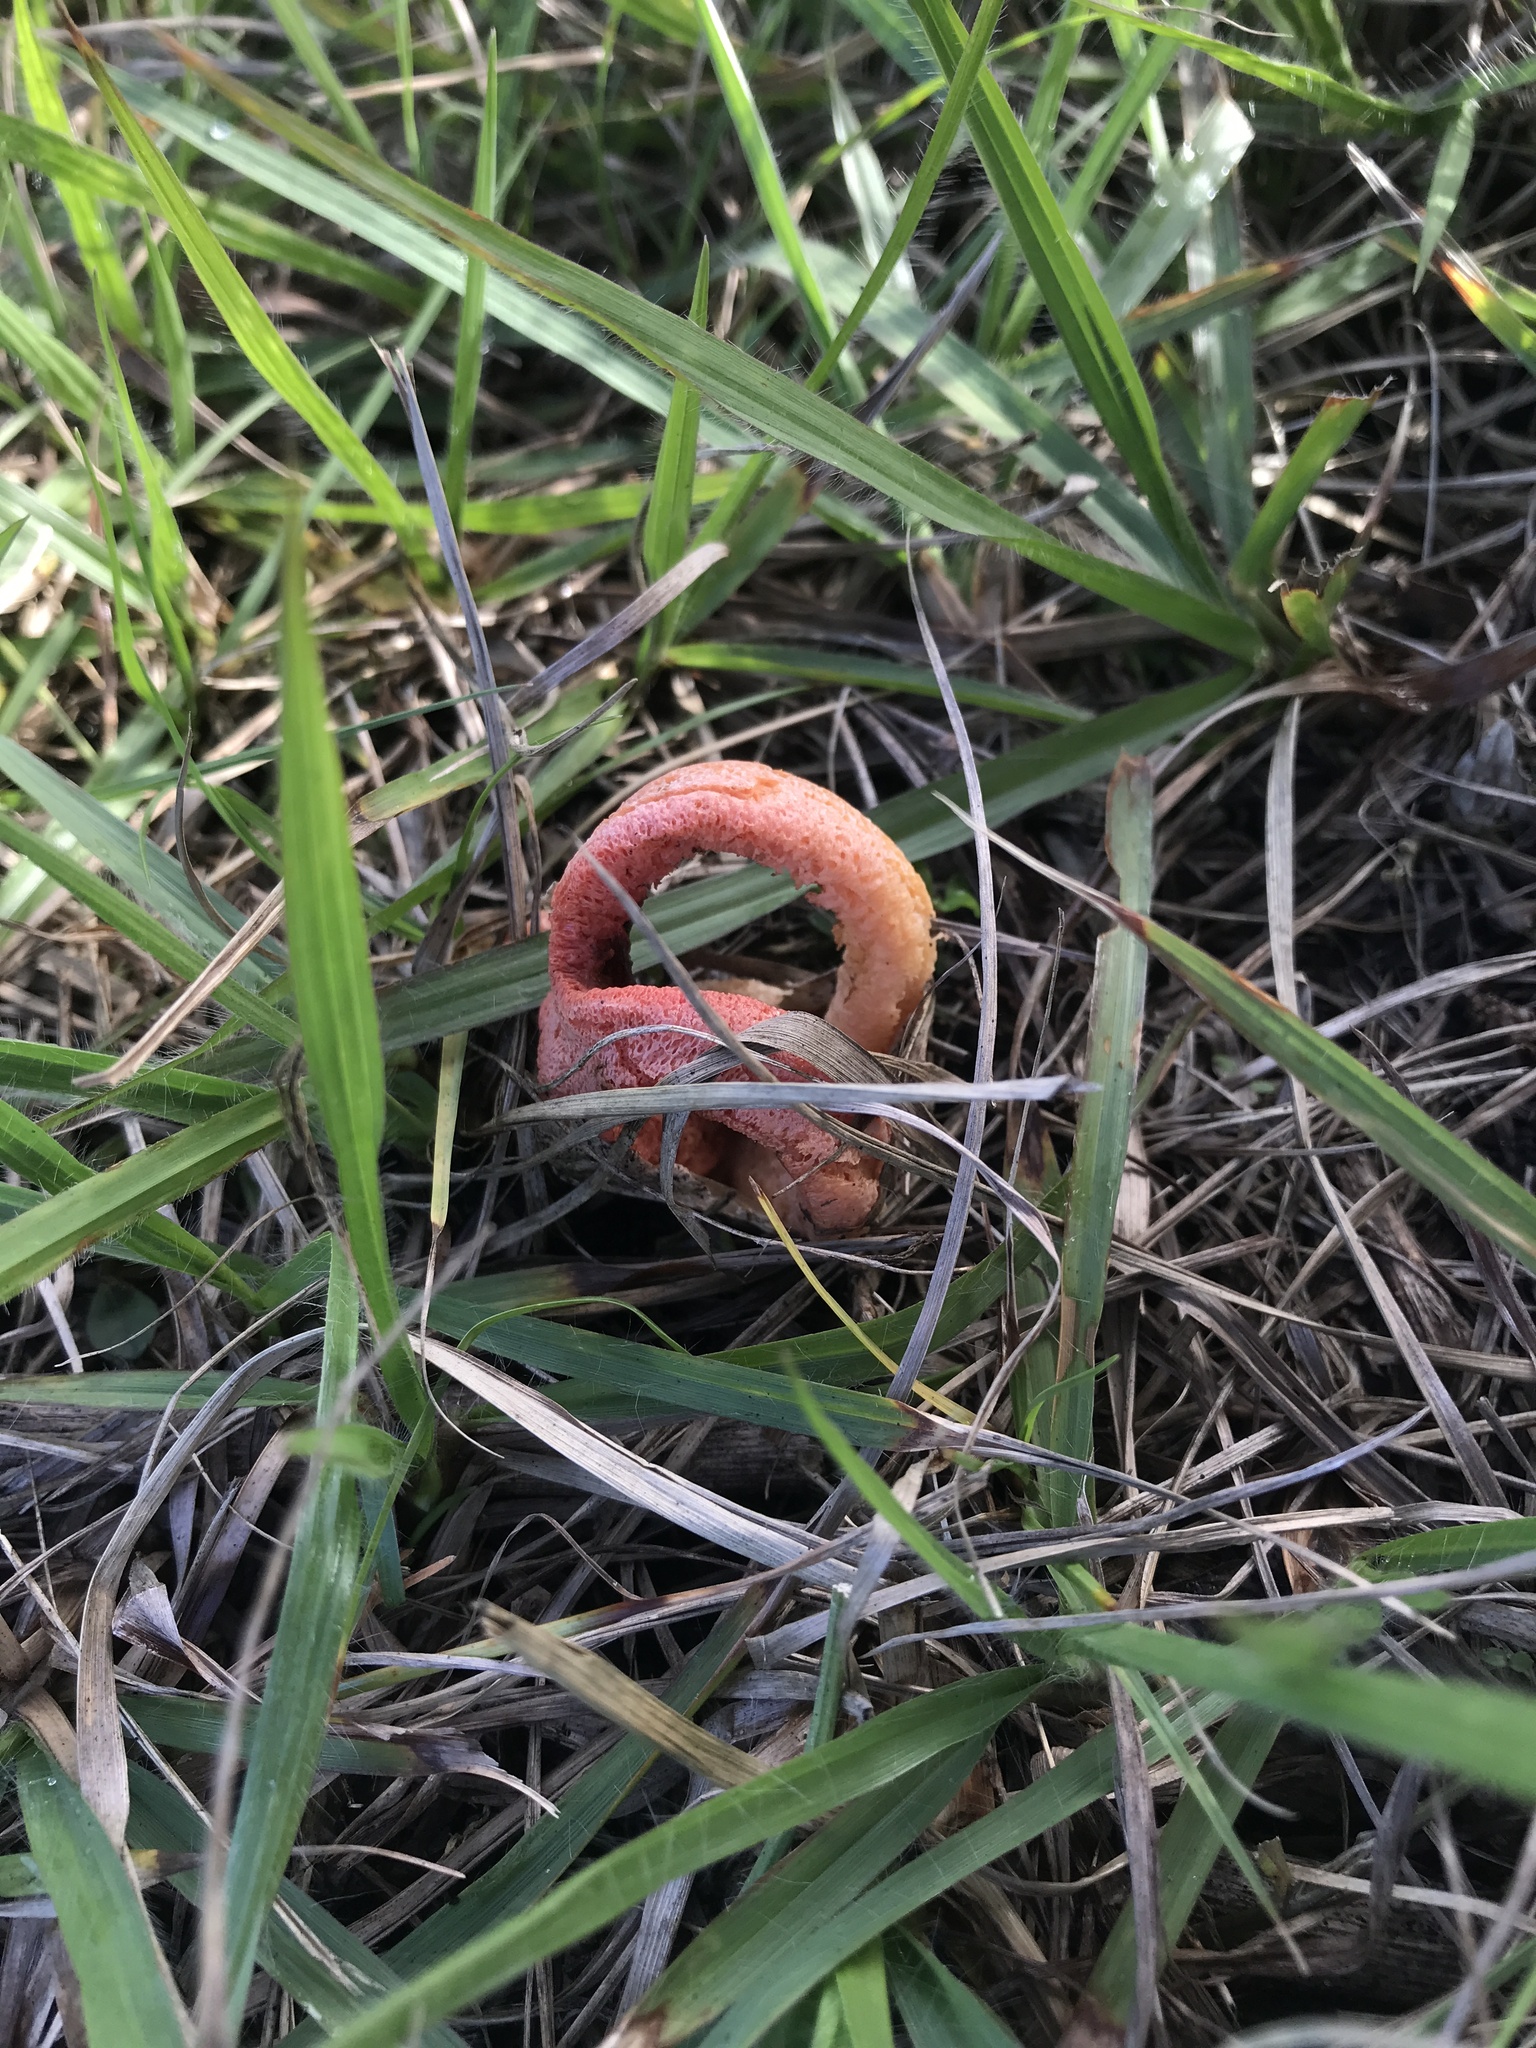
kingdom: Fungi
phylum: Basidiomycota
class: Agaricomycetes
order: Phallales
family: Phallaceae
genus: Clathrus
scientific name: Clathrus columnatus
